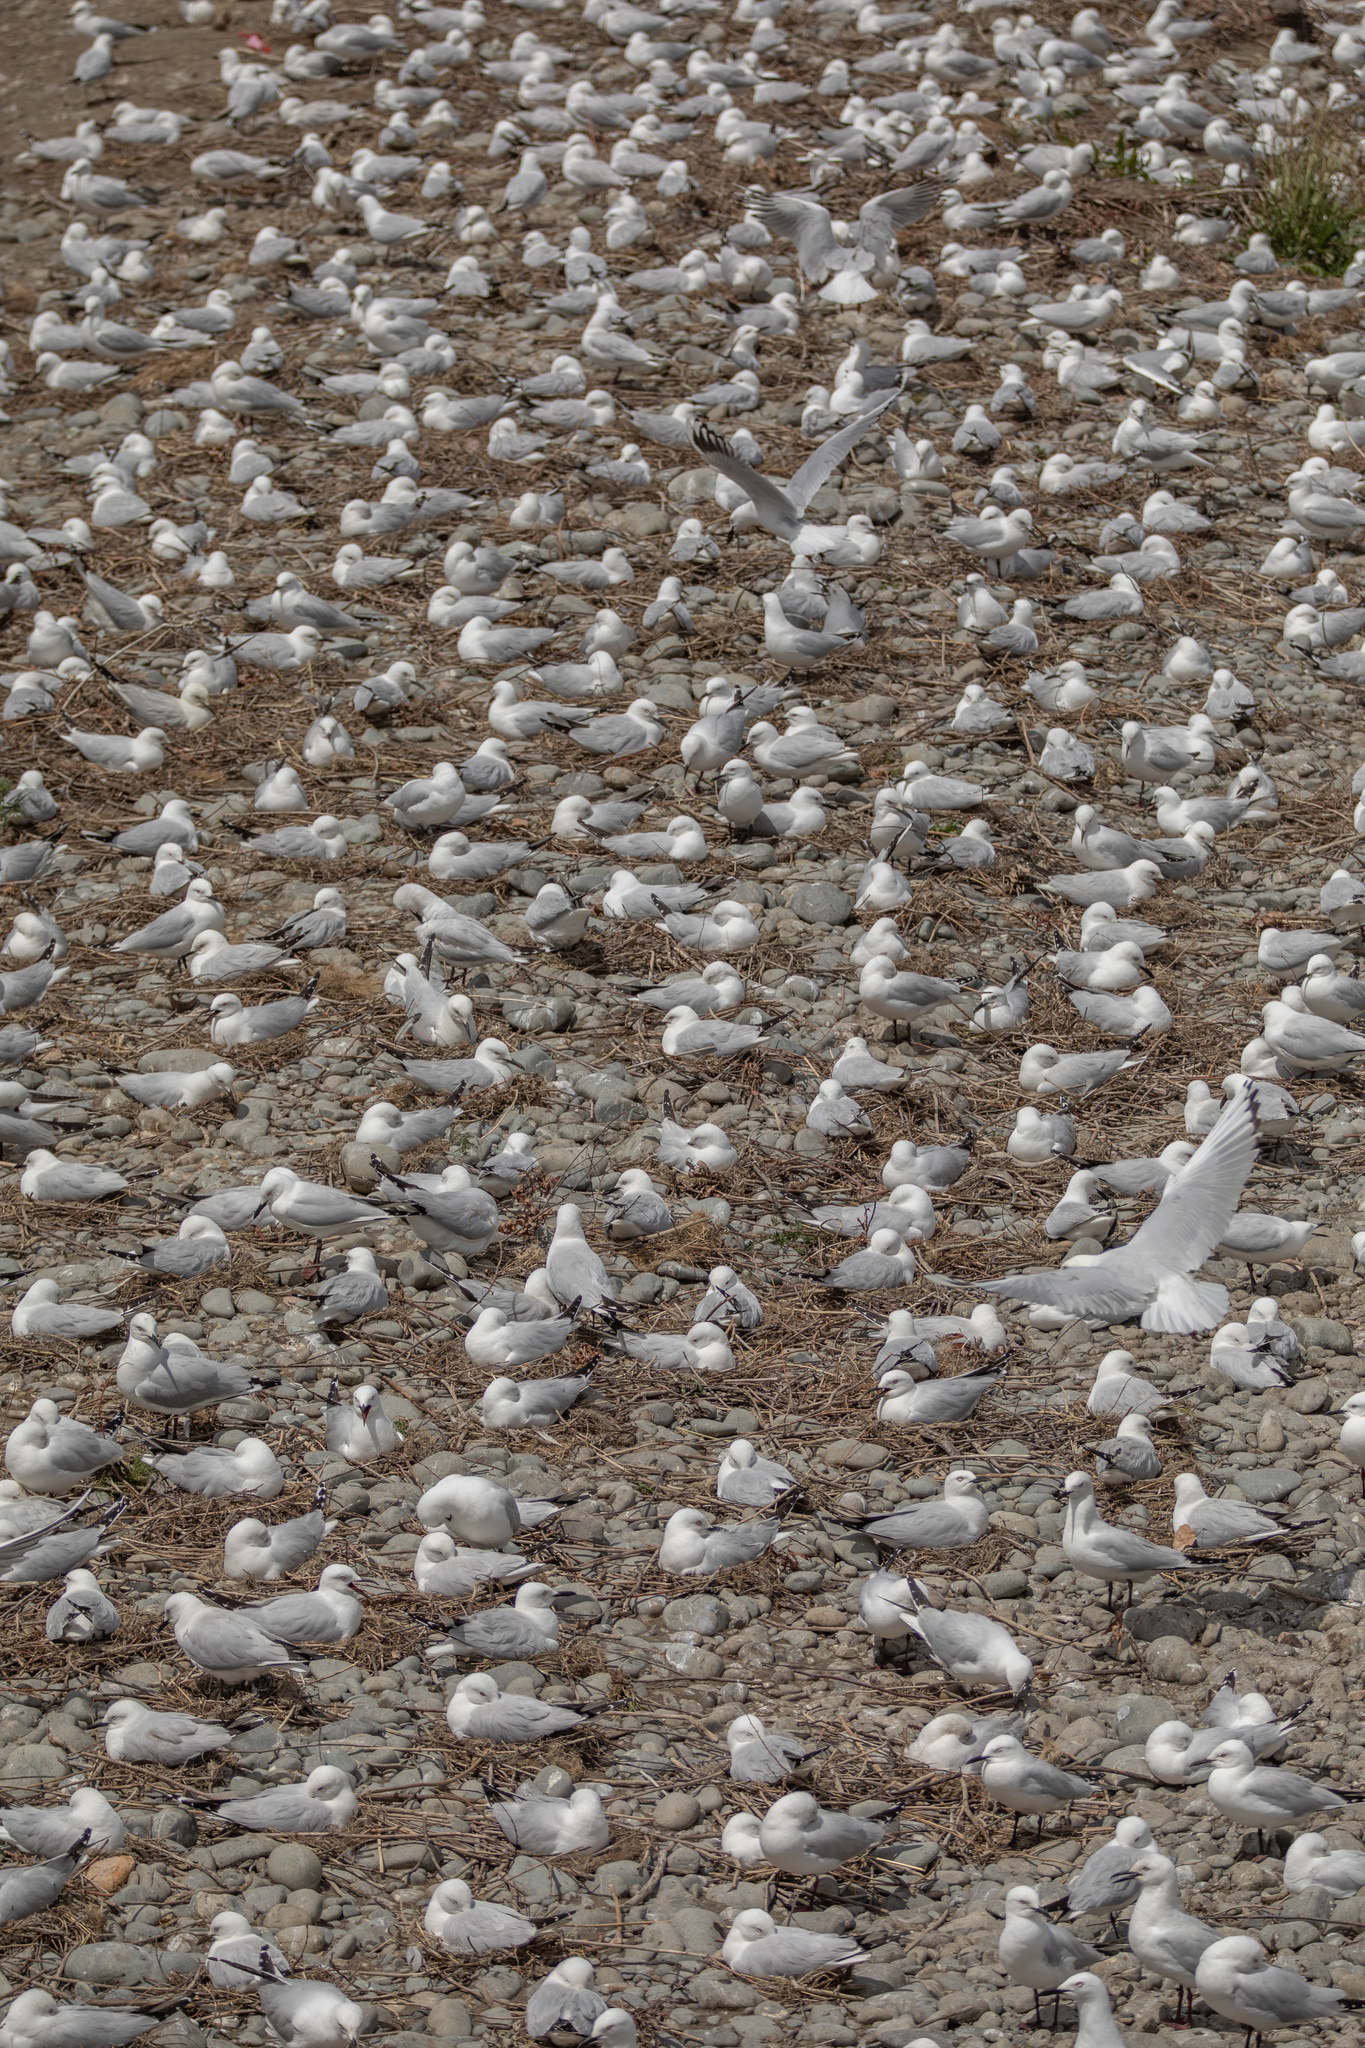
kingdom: Animalia
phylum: Chordata
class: Aves
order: Charadriiformes
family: Laridae
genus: Chroicocephalus
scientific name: Chroicocephalus bulleri
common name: Black-billed gull
